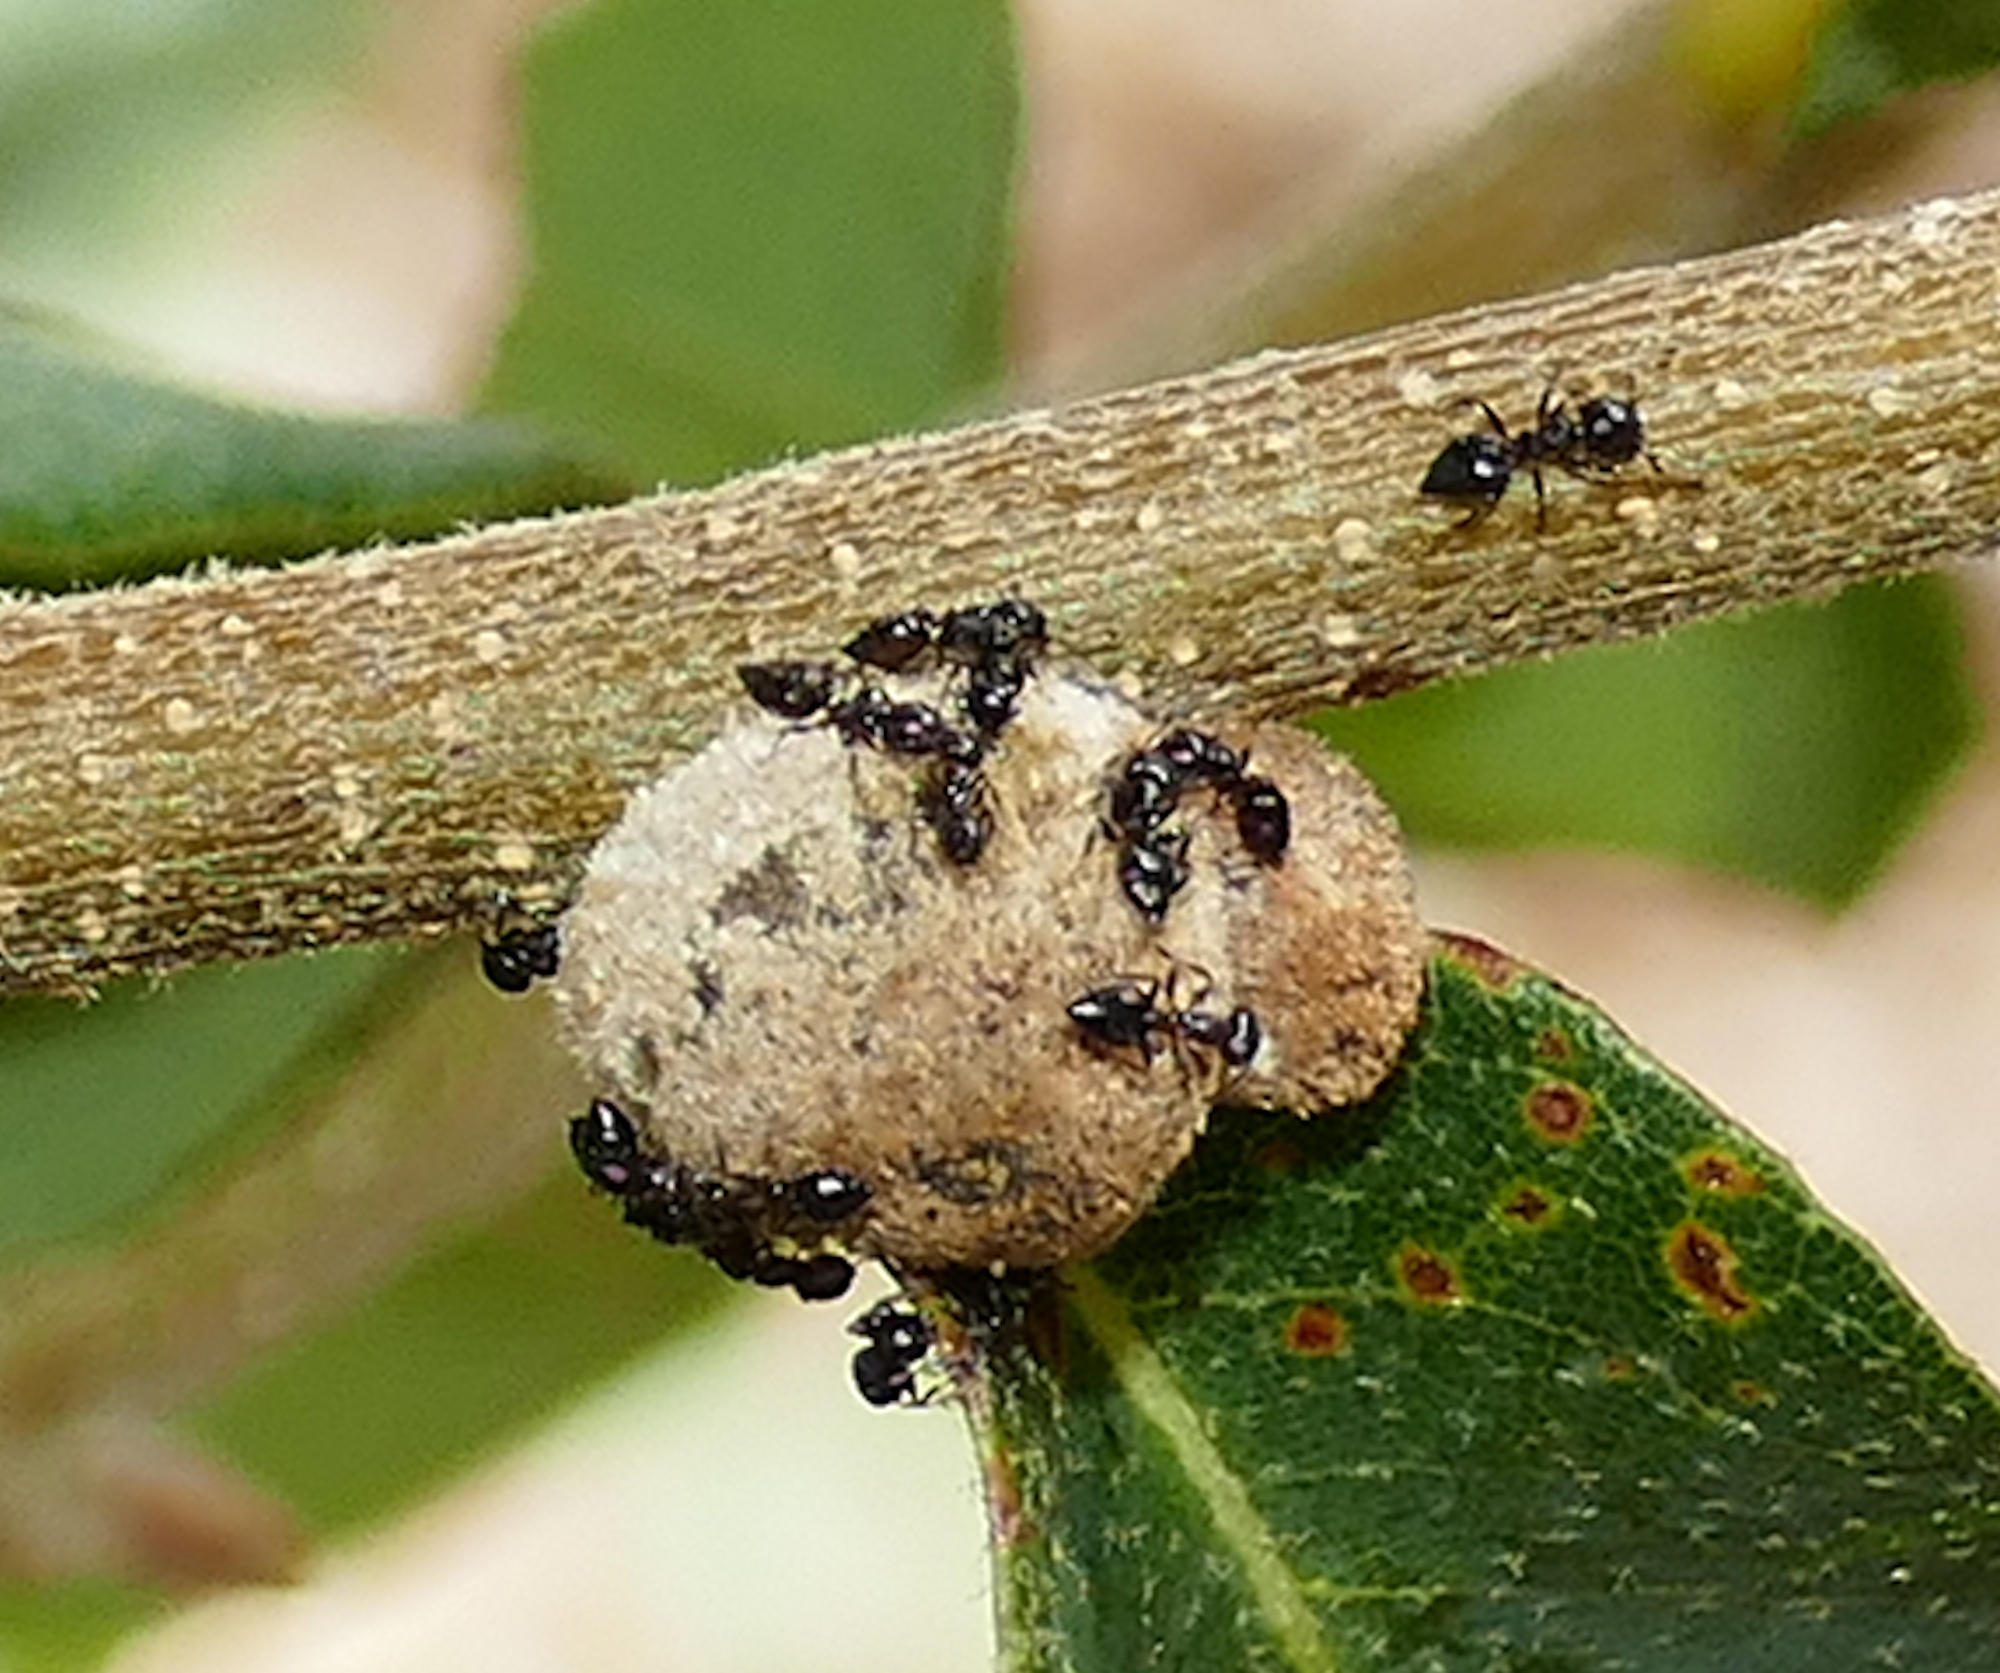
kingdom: Animalia
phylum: Arthropoda
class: Insecta
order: Hymenoptera
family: Cynipidae
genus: Disholcaspis
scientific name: Disholcaspis
